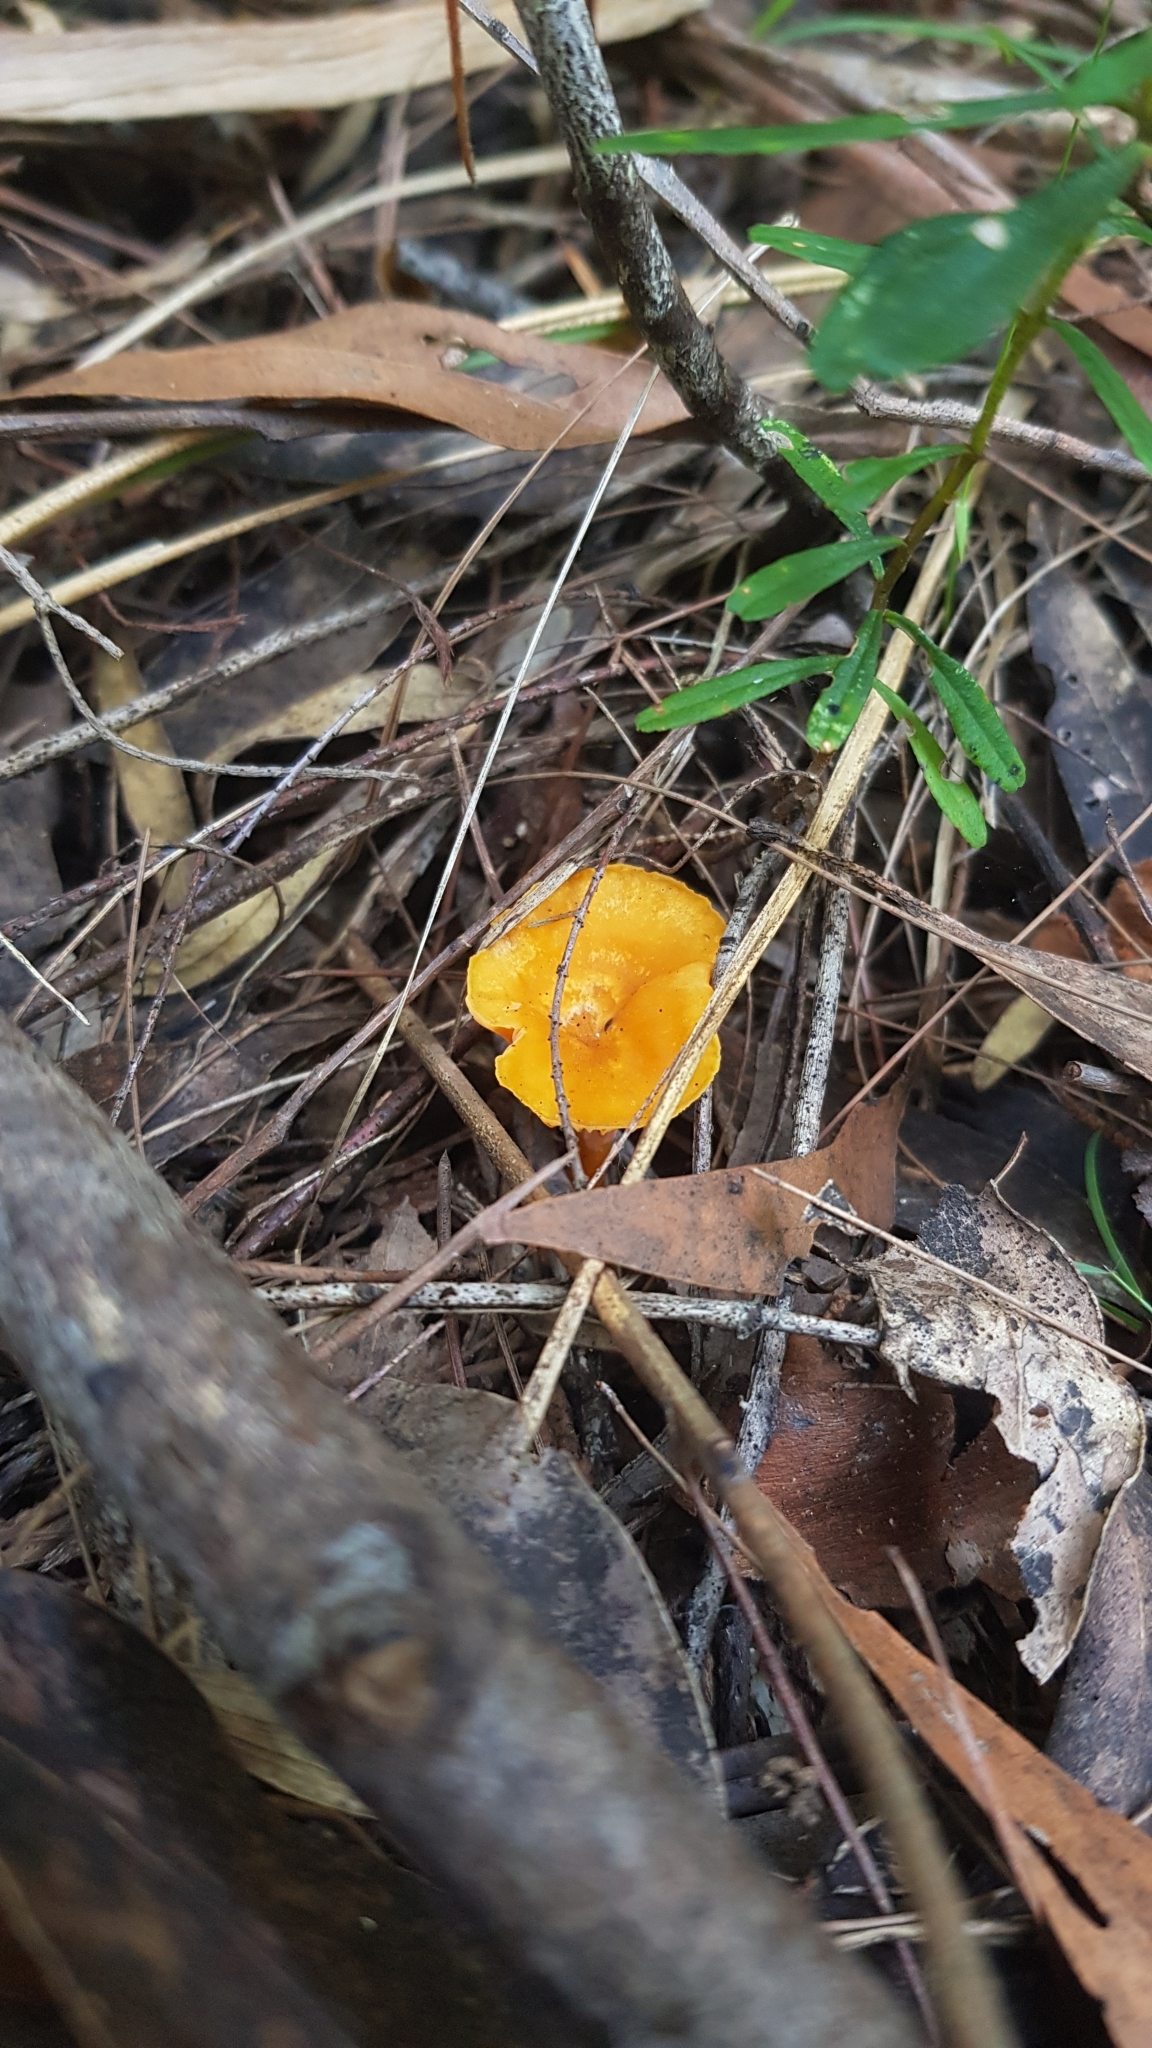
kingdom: Fungi
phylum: Basidiomycota
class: Agaricomycetes
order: Cantharellales
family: Hydnaceae
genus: Cantharellus
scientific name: Cantharellus
